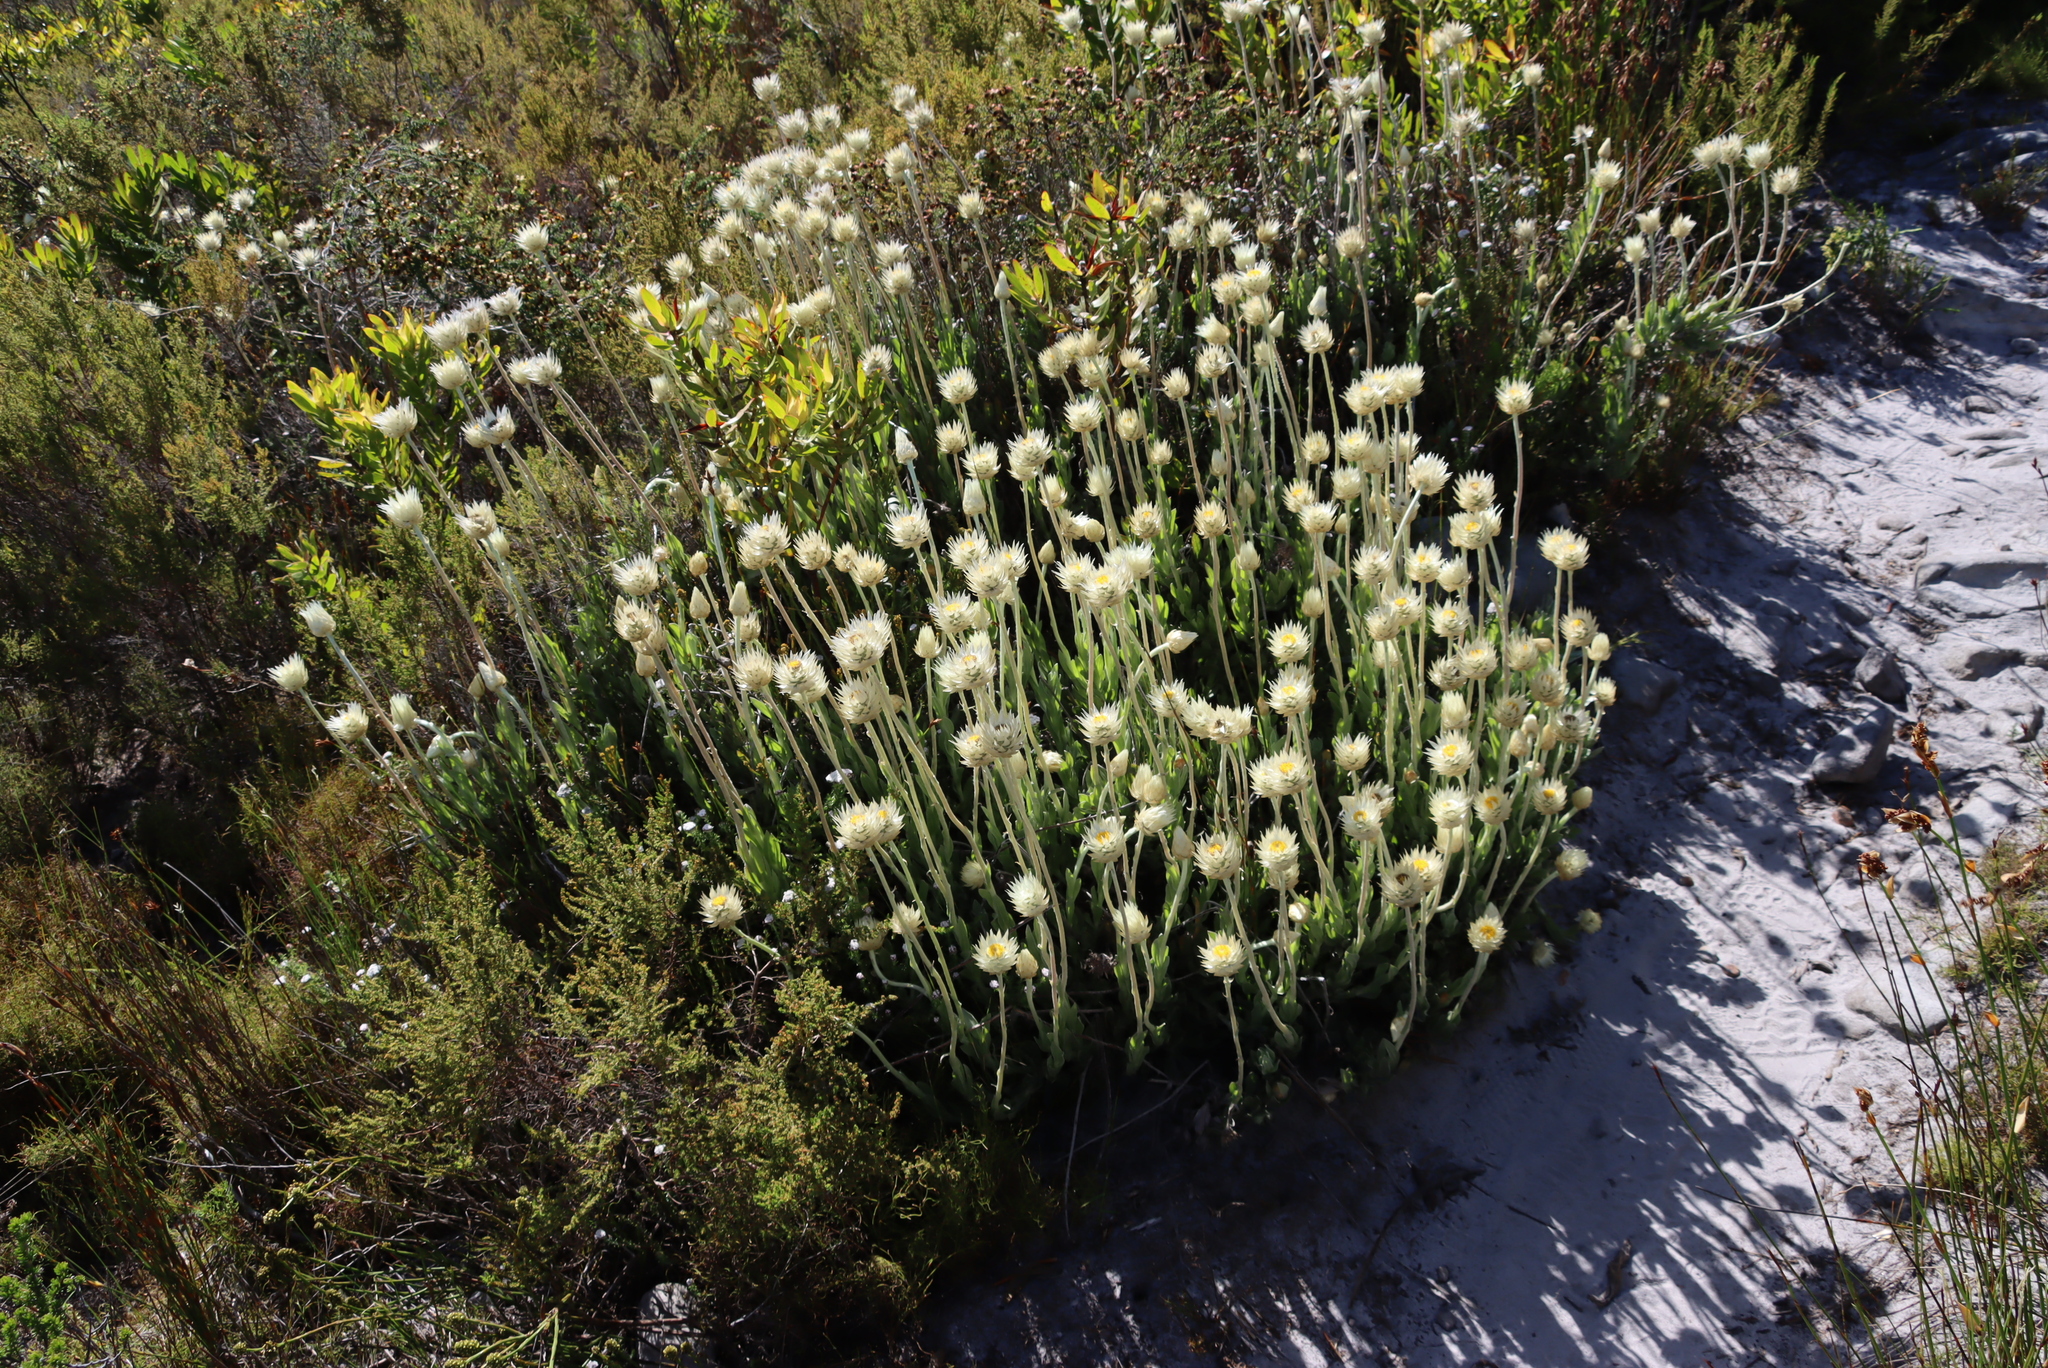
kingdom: Plantae
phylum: Tracheophyta
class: Magnoliopsida
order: Asterales
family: Asteraceae
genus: Syncarpha
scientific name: Syncarpha speciosissima
